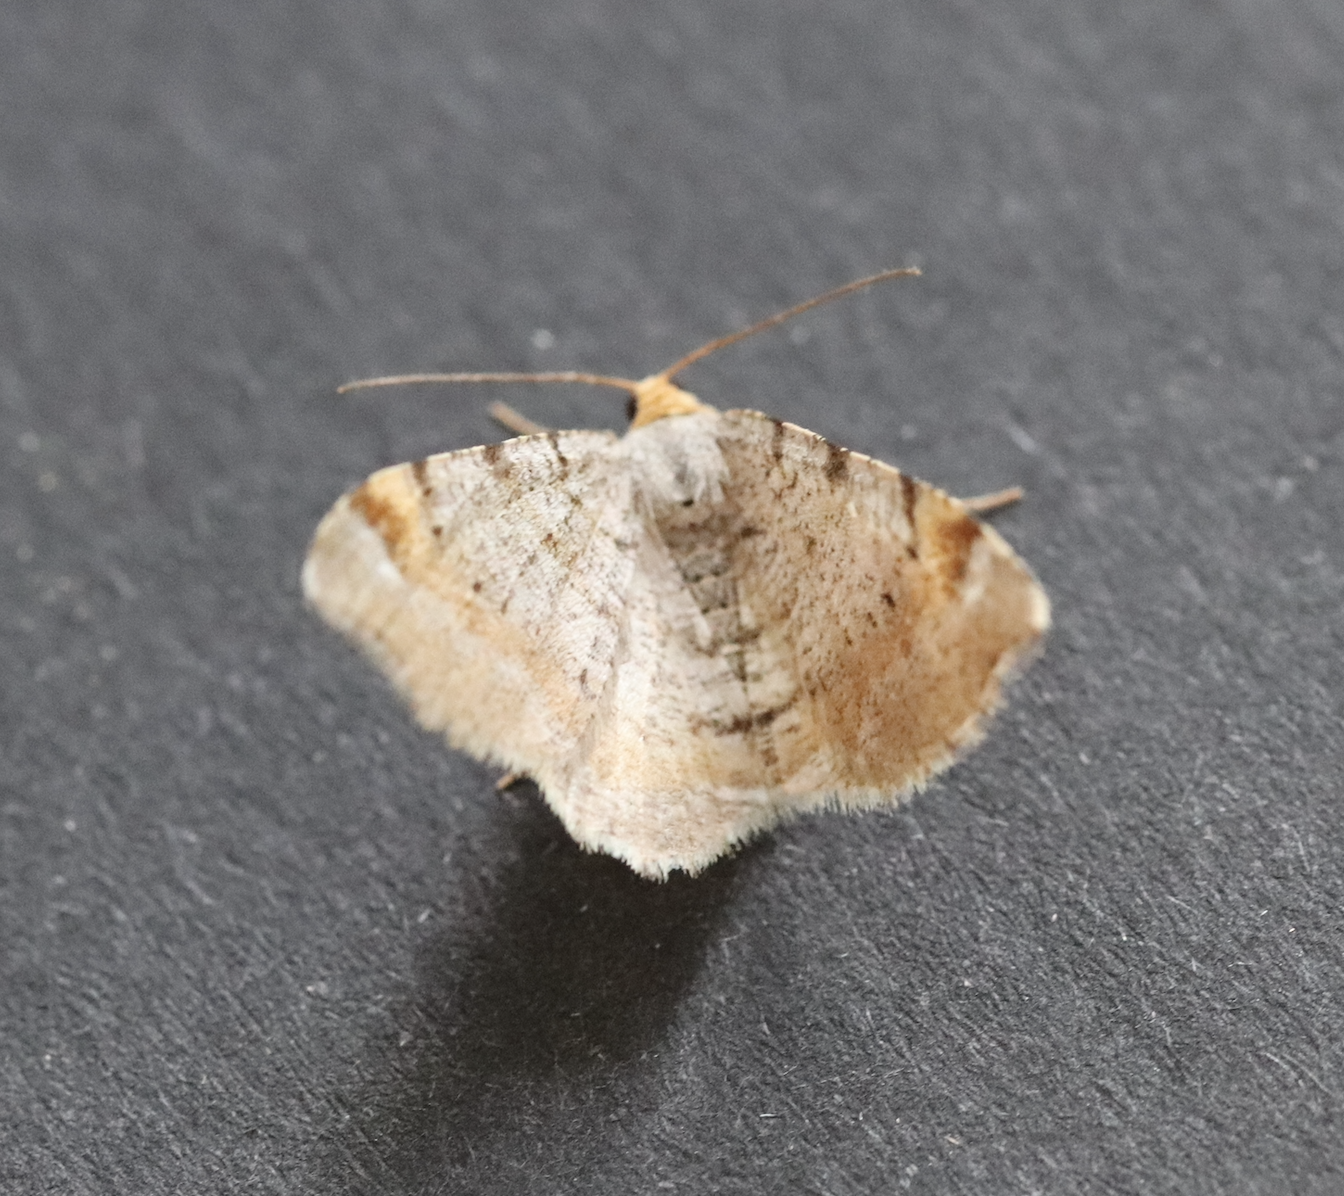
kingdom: Animalia
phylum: Arthropoda
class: Insecta
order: Lepidoptera
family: Geometridae
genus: Macaria
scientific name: Macaria liturata
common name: Tawny-barred angle
